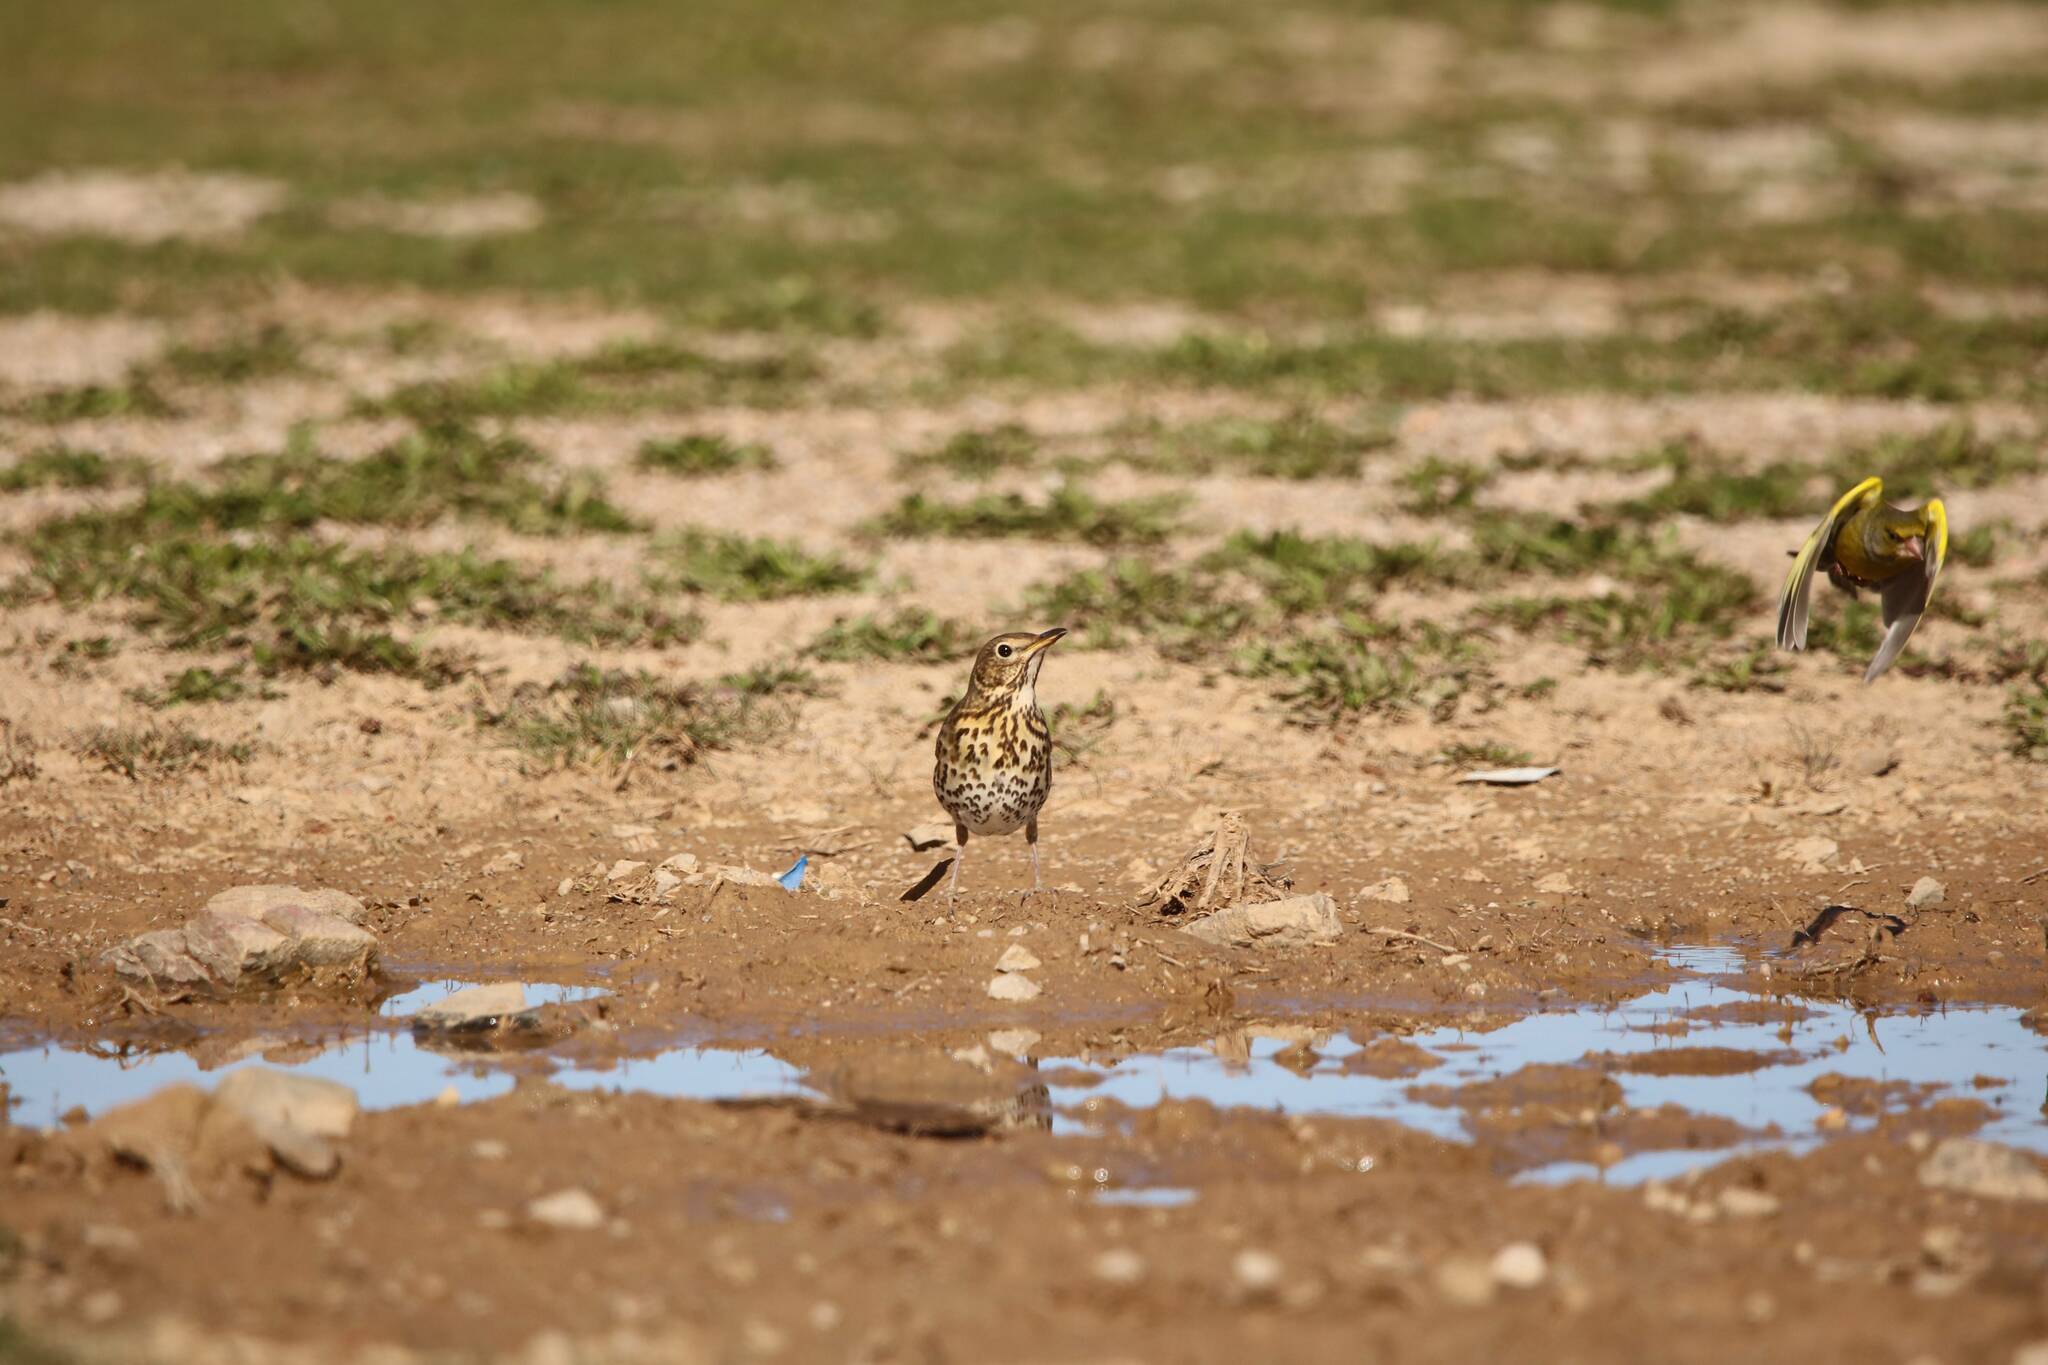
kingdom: Animalia
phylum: Chordata
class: Aves
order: Passeriformes
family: Turdidae
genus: Turdus
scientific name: Turdus philomelos
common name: Song thrush
